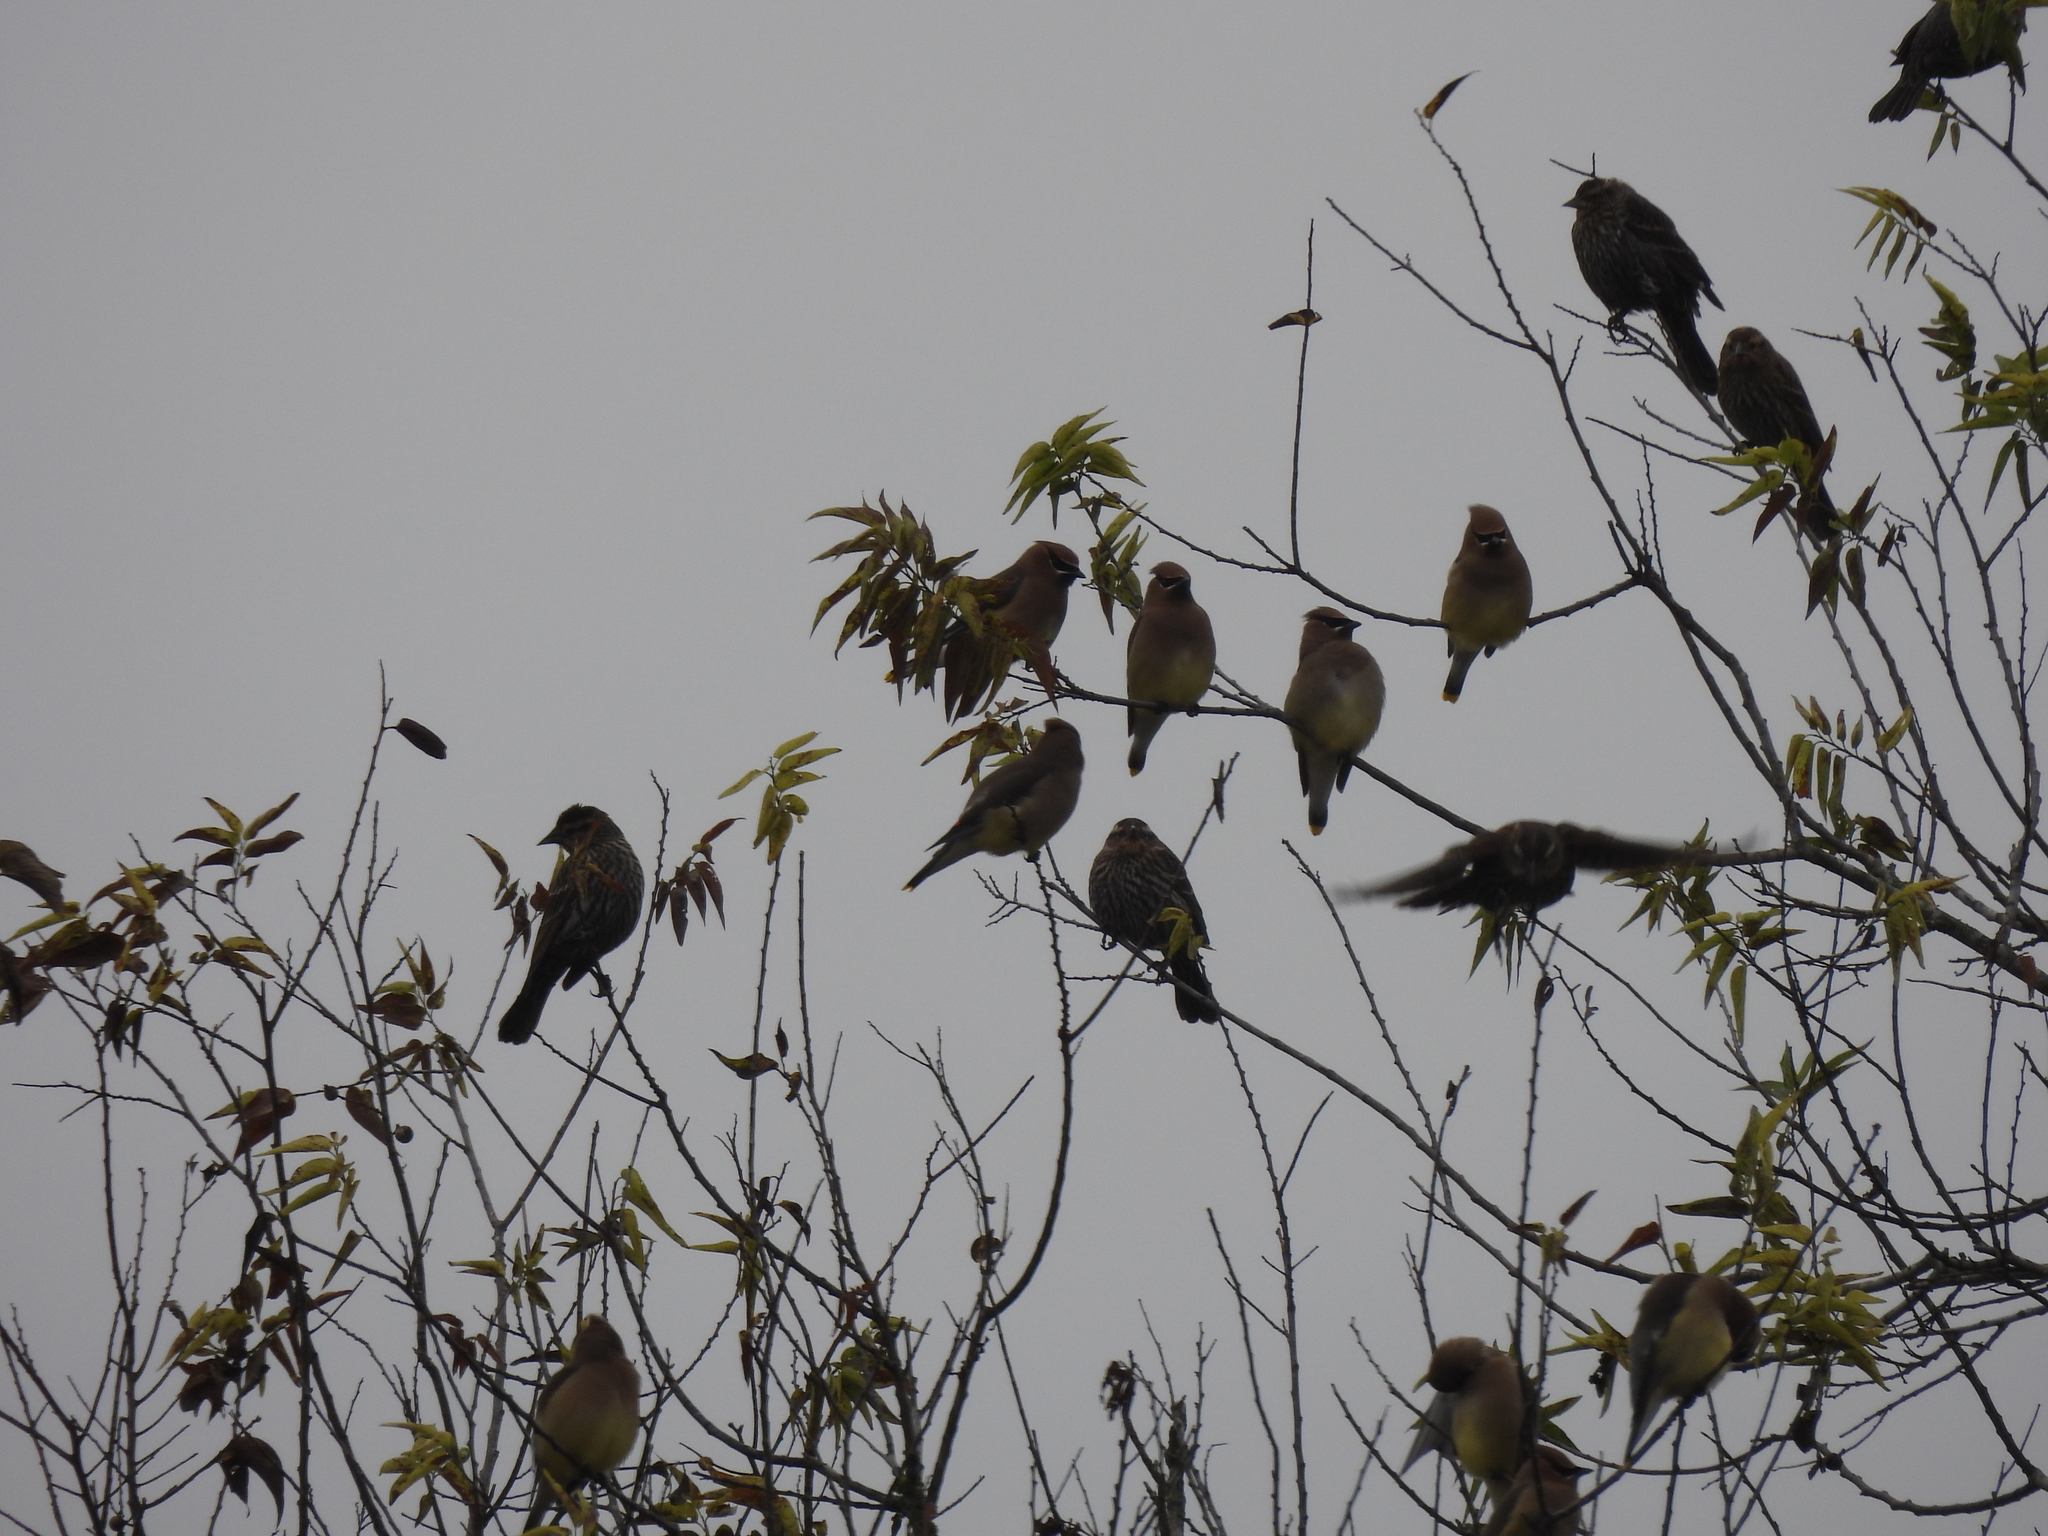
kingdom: Animalia
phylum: Chordata
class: Aves
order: Passeriformes
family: Bombycillidae
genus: Bombycilla
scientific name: Bombycilla cedrorum
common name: Cedar waxwing
